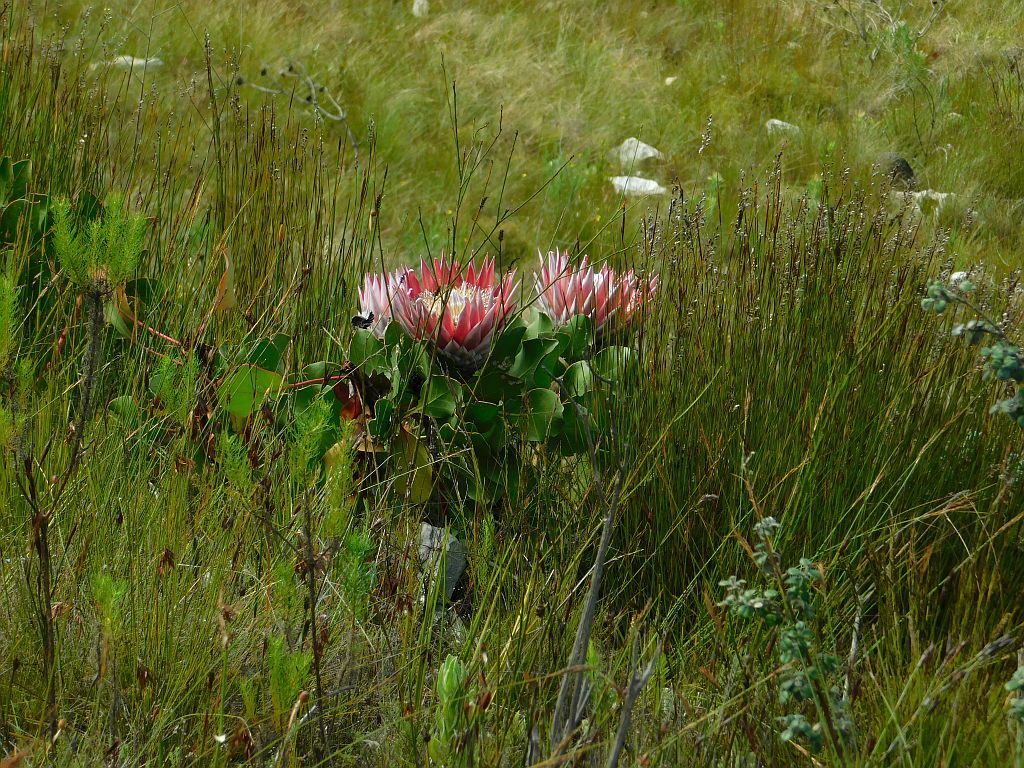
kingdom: Plantae
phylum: Tracheophyta
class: Magnoliopsida
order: Proteales
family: Proteaceae
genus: Protea
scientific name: Protea cynaroides
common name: King protea
